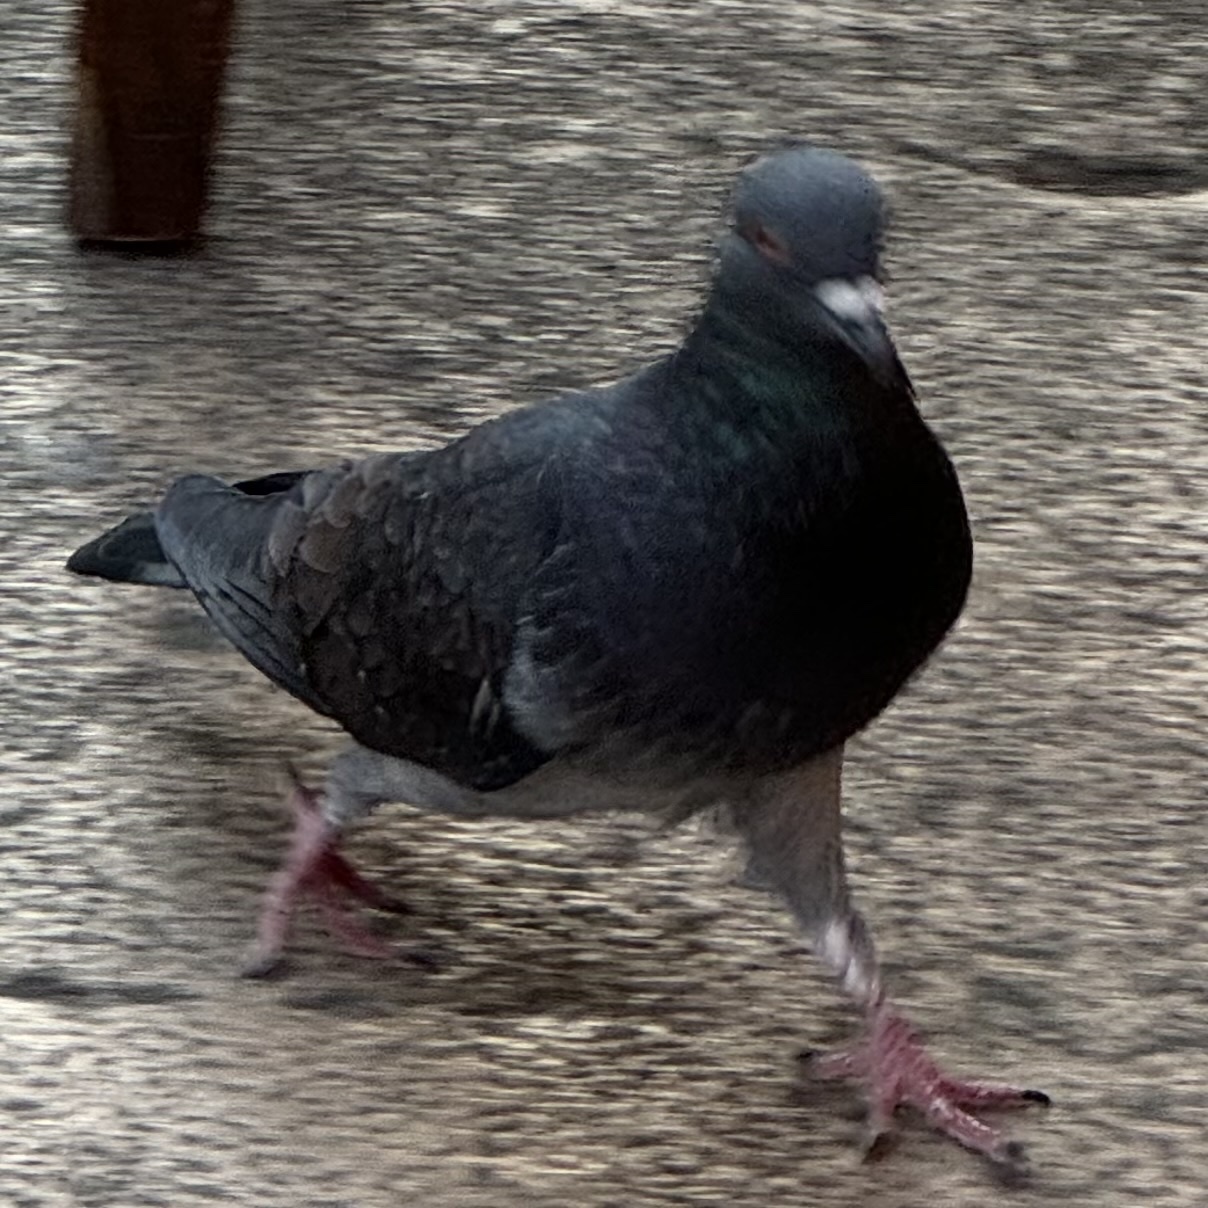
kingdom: Animalia
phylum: Chordata
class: Aves
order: Columbiformes
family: Columbidae
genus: Columba
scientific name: Columba livia
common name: Rock pigeon
